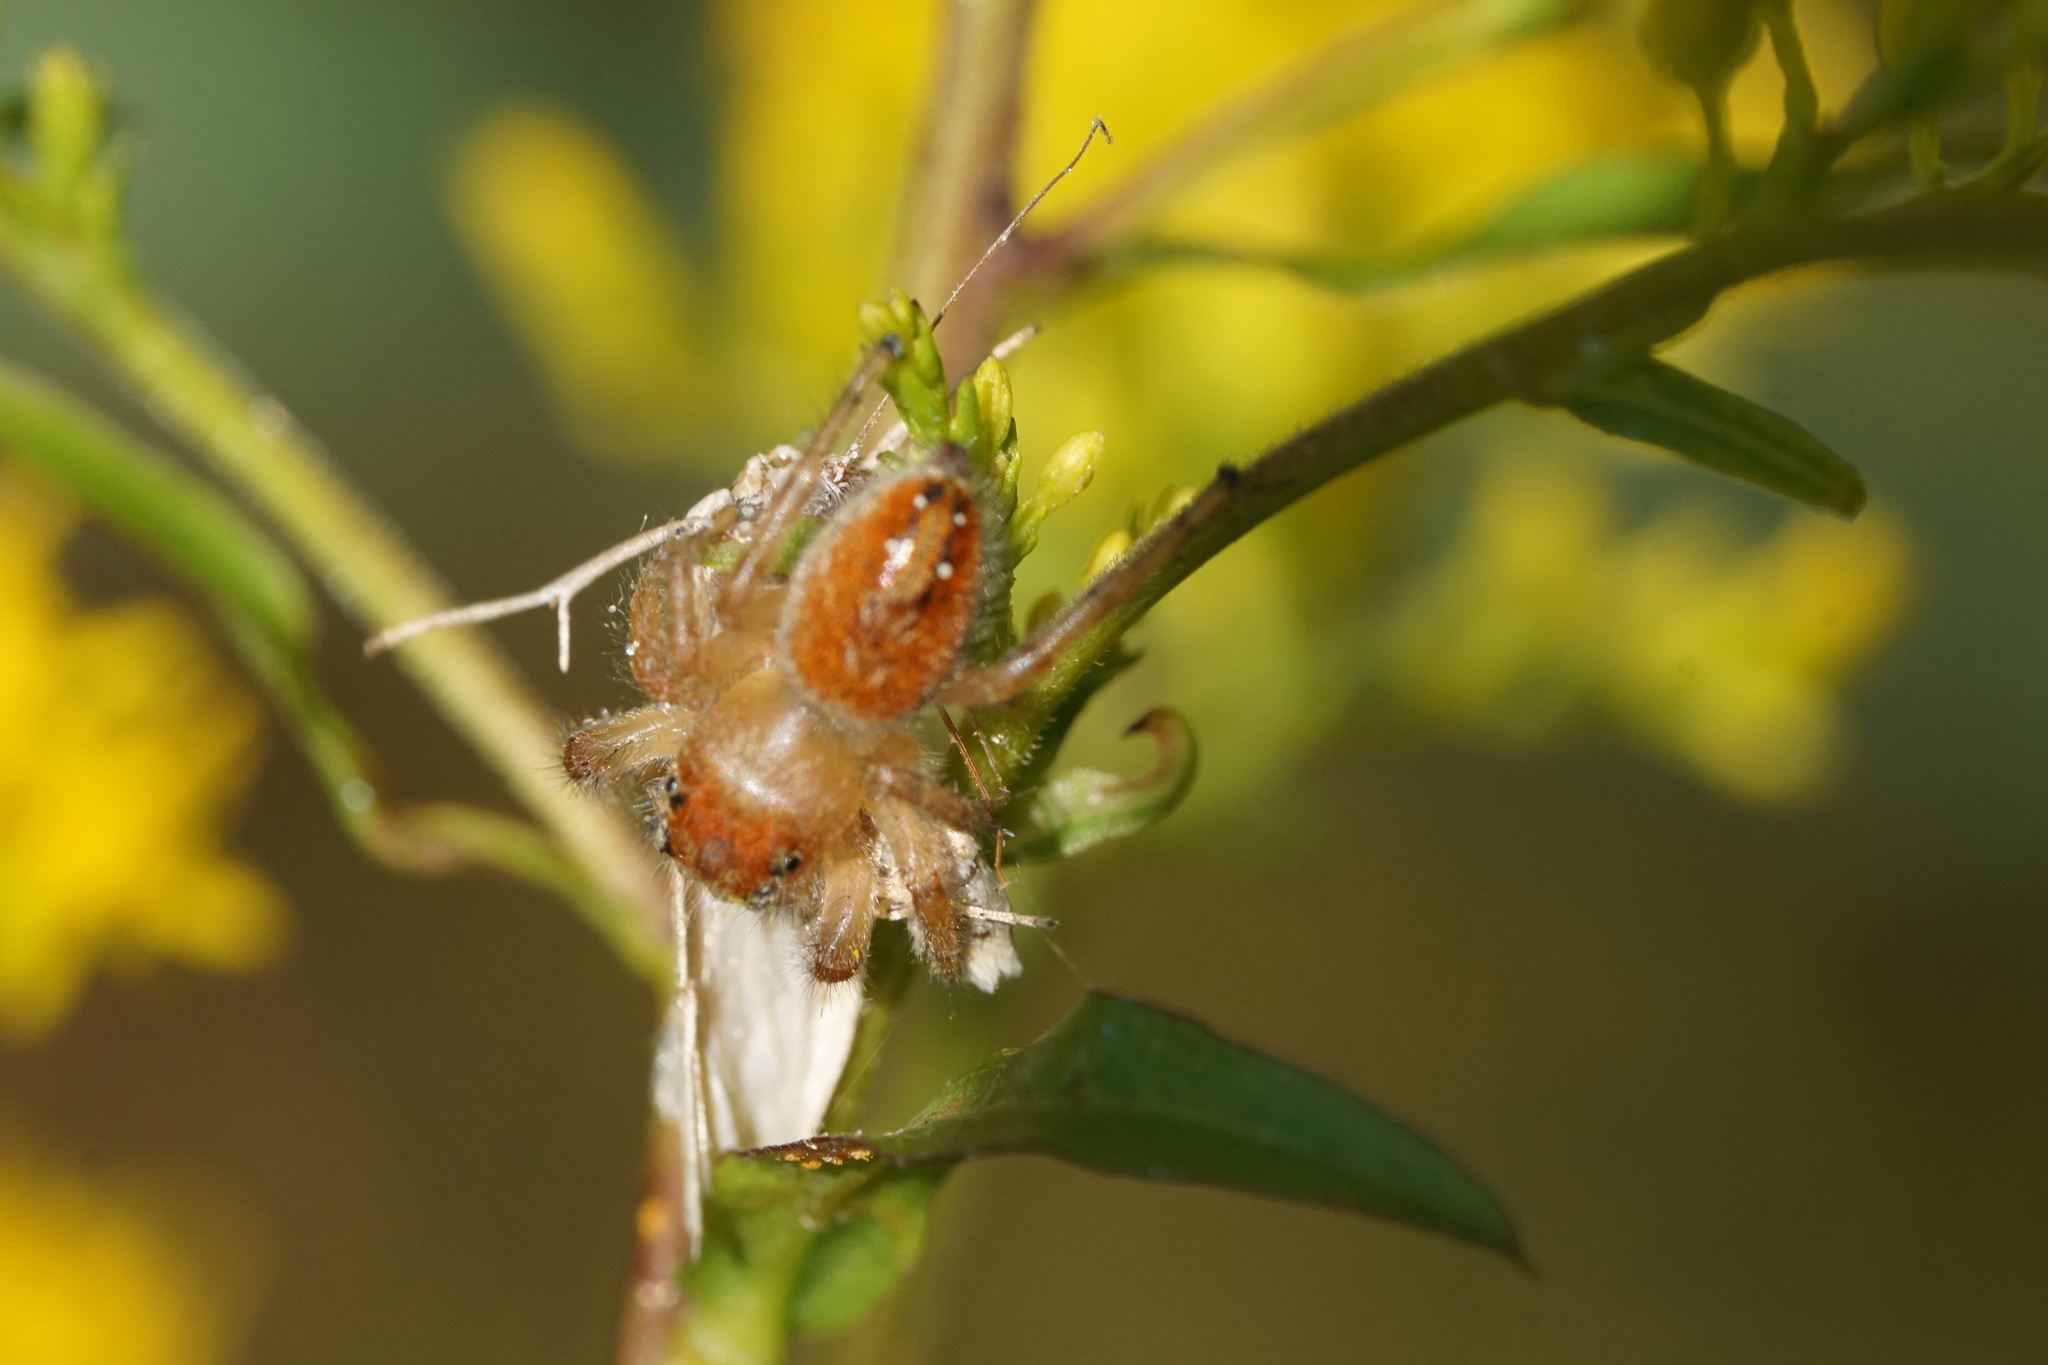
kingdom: Animalia
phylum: Arthropoda
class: Arachnida
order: Araneae
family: Salticidae
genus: Phidippus
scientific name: Phidippus cardinalis
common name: Cardinal jumper
